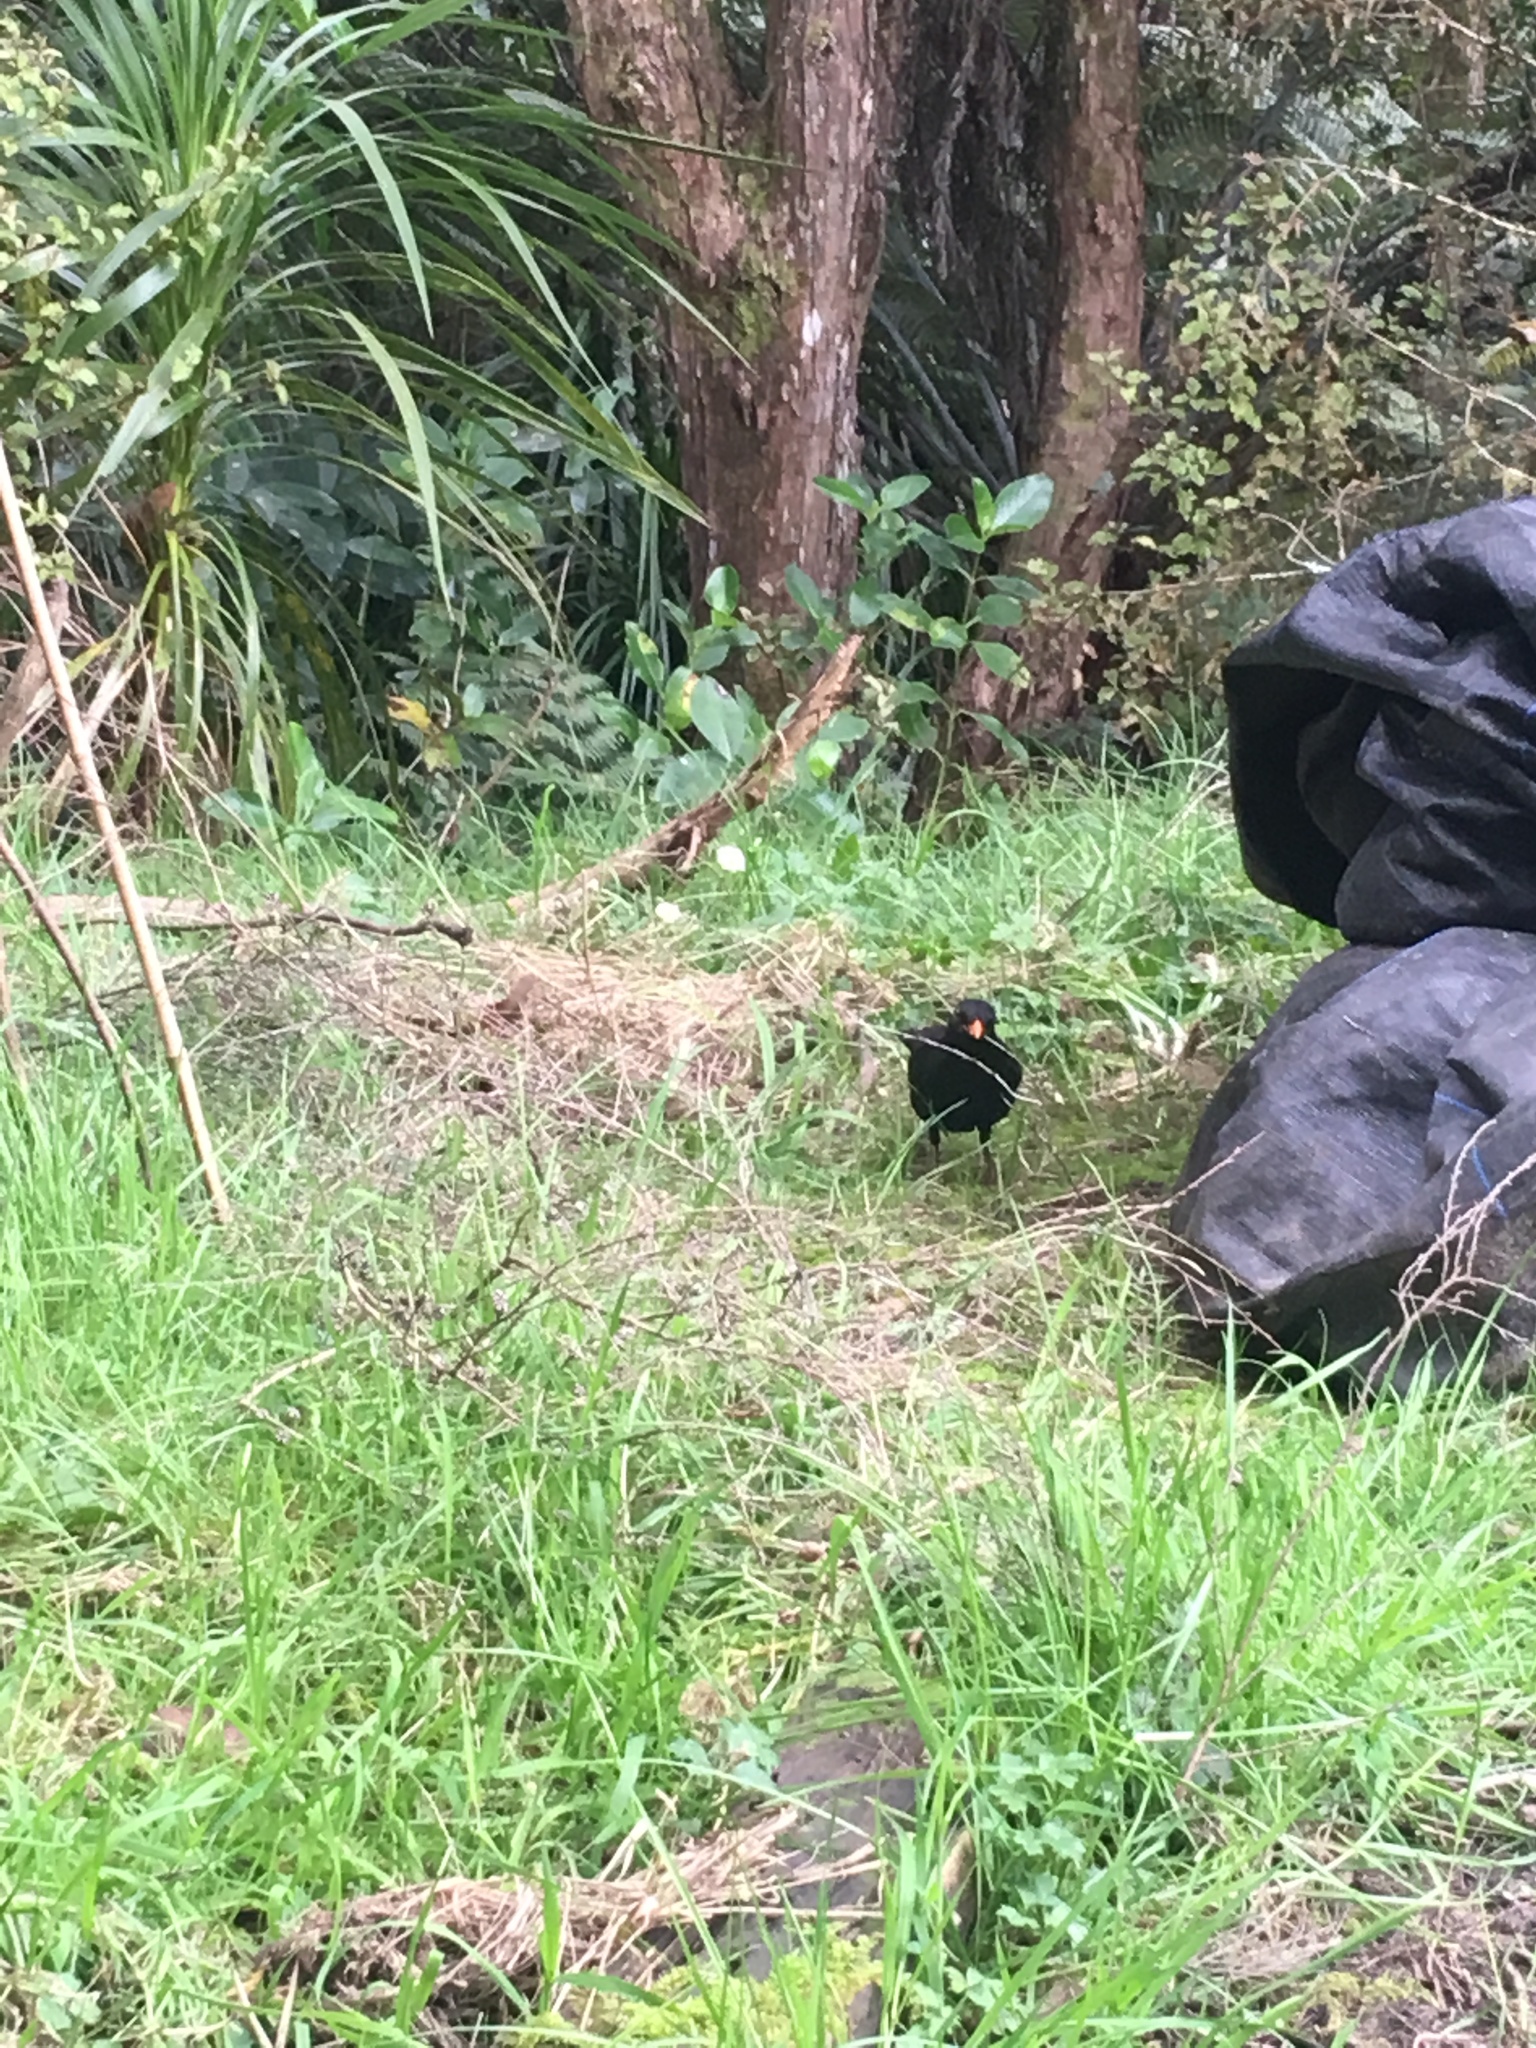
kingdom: Animalia
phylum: Chordata
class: Aves
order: Passeriformes
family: Turdidae
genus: Turdus
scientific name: Turdus merula
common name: Common blackbird
